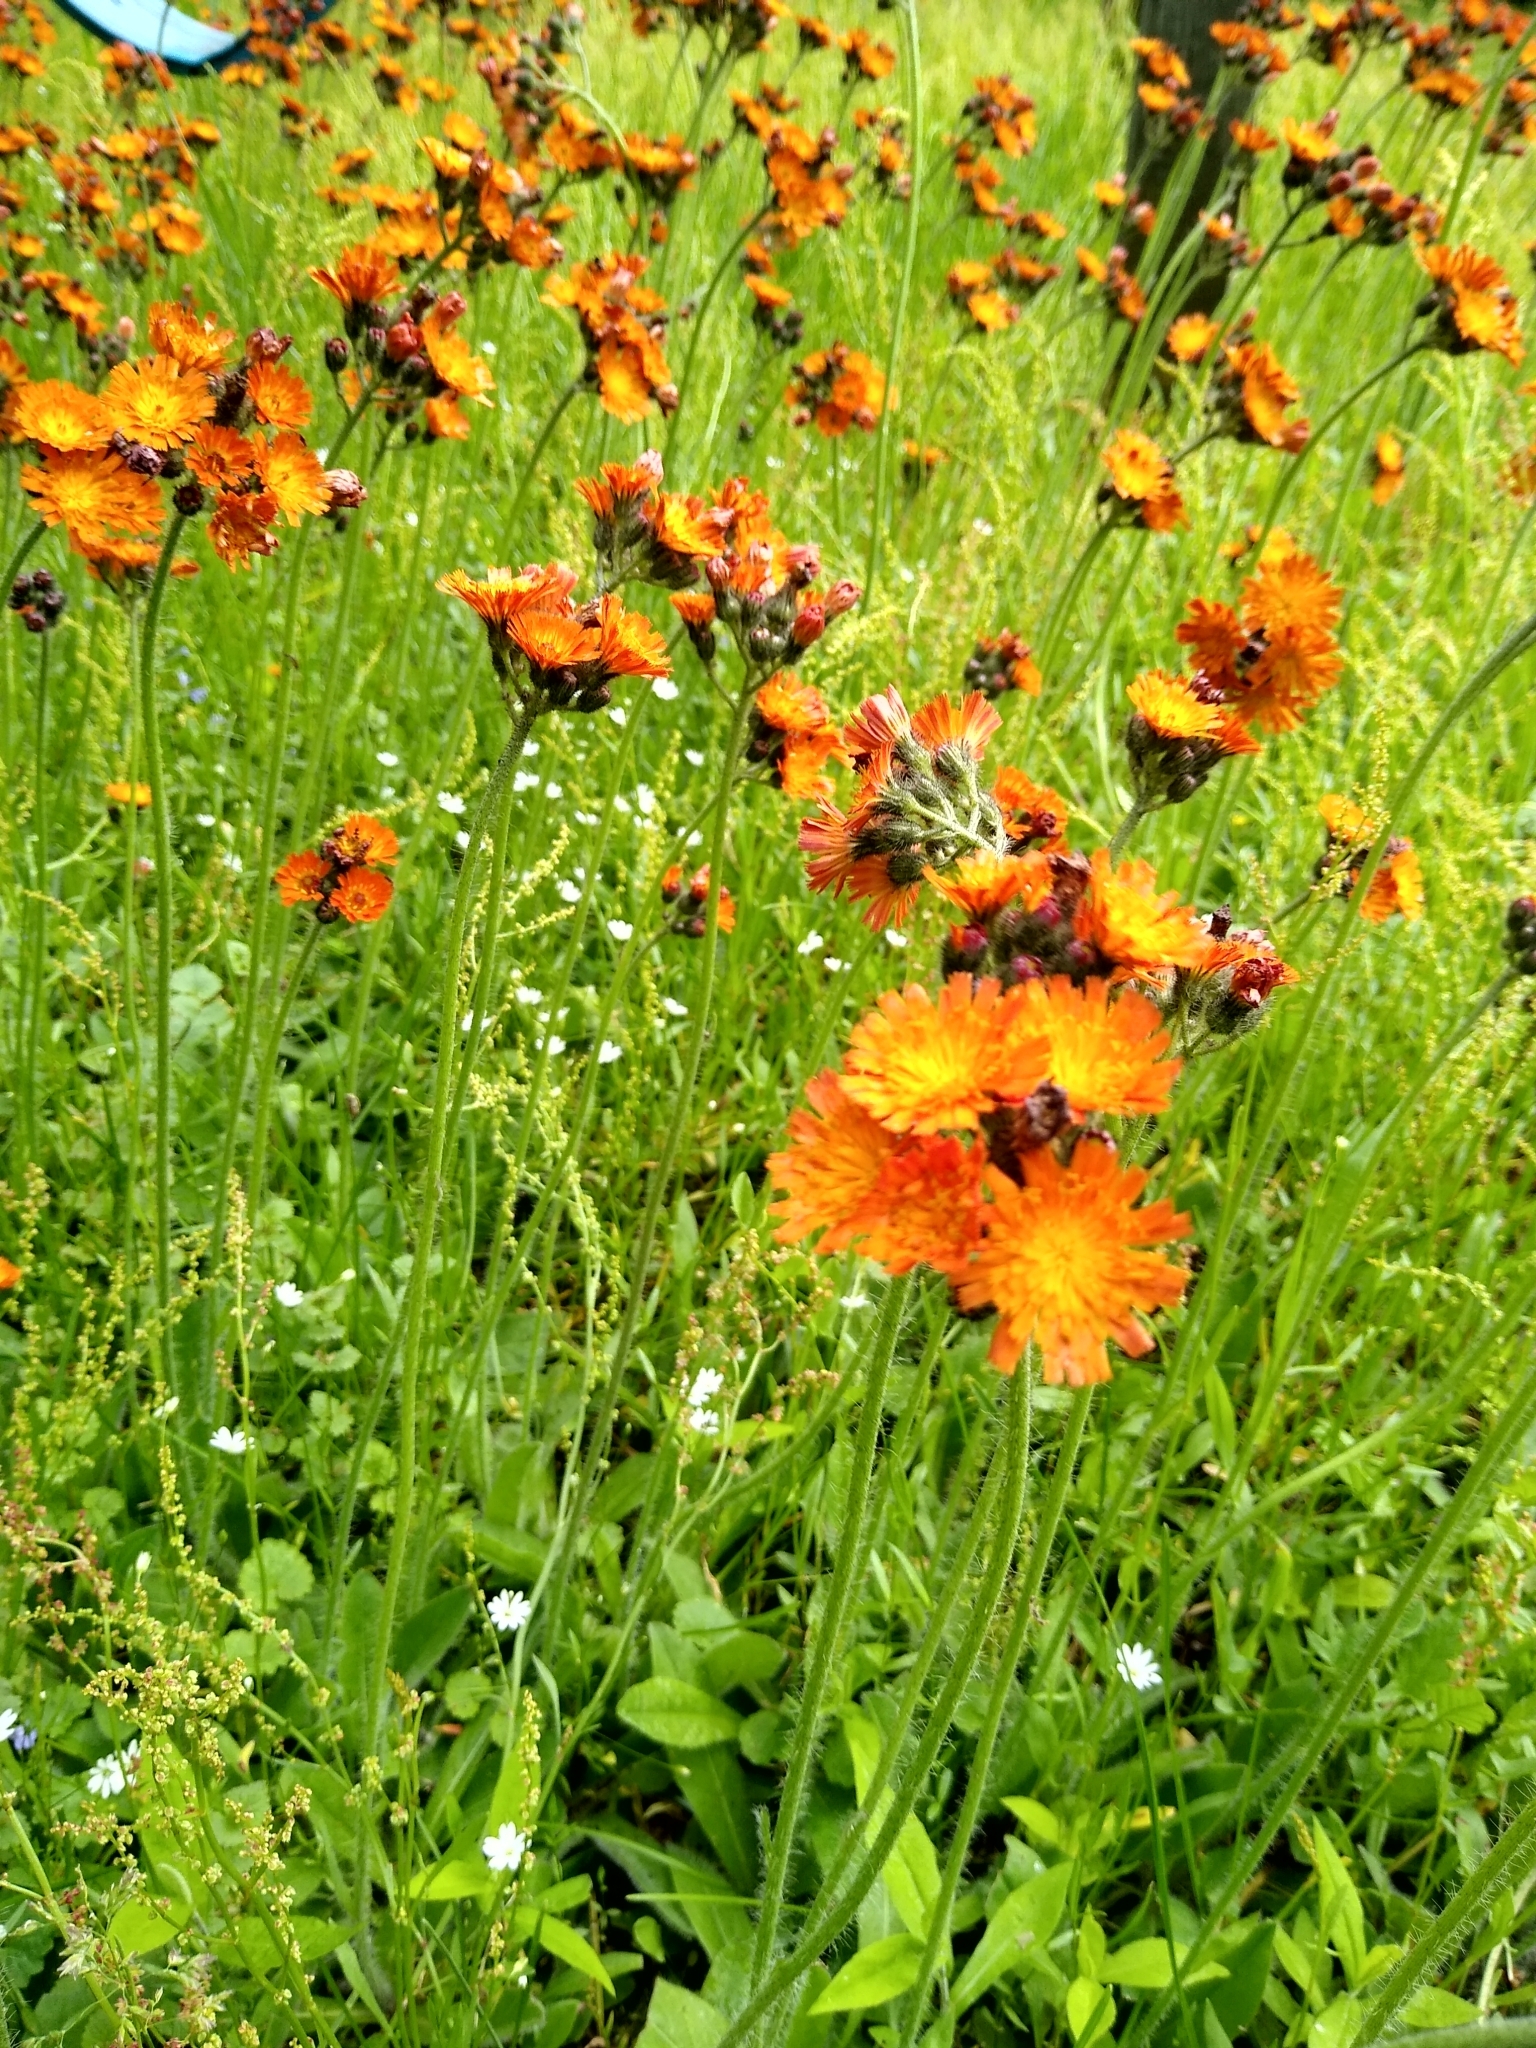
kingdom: Plantae
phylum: Tracheophyta
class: Magnoliopsida
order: Asterales
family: Asteraceae
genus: Pilosella
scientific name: Pilosella aurantiaca
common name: Fox-and-cubs
